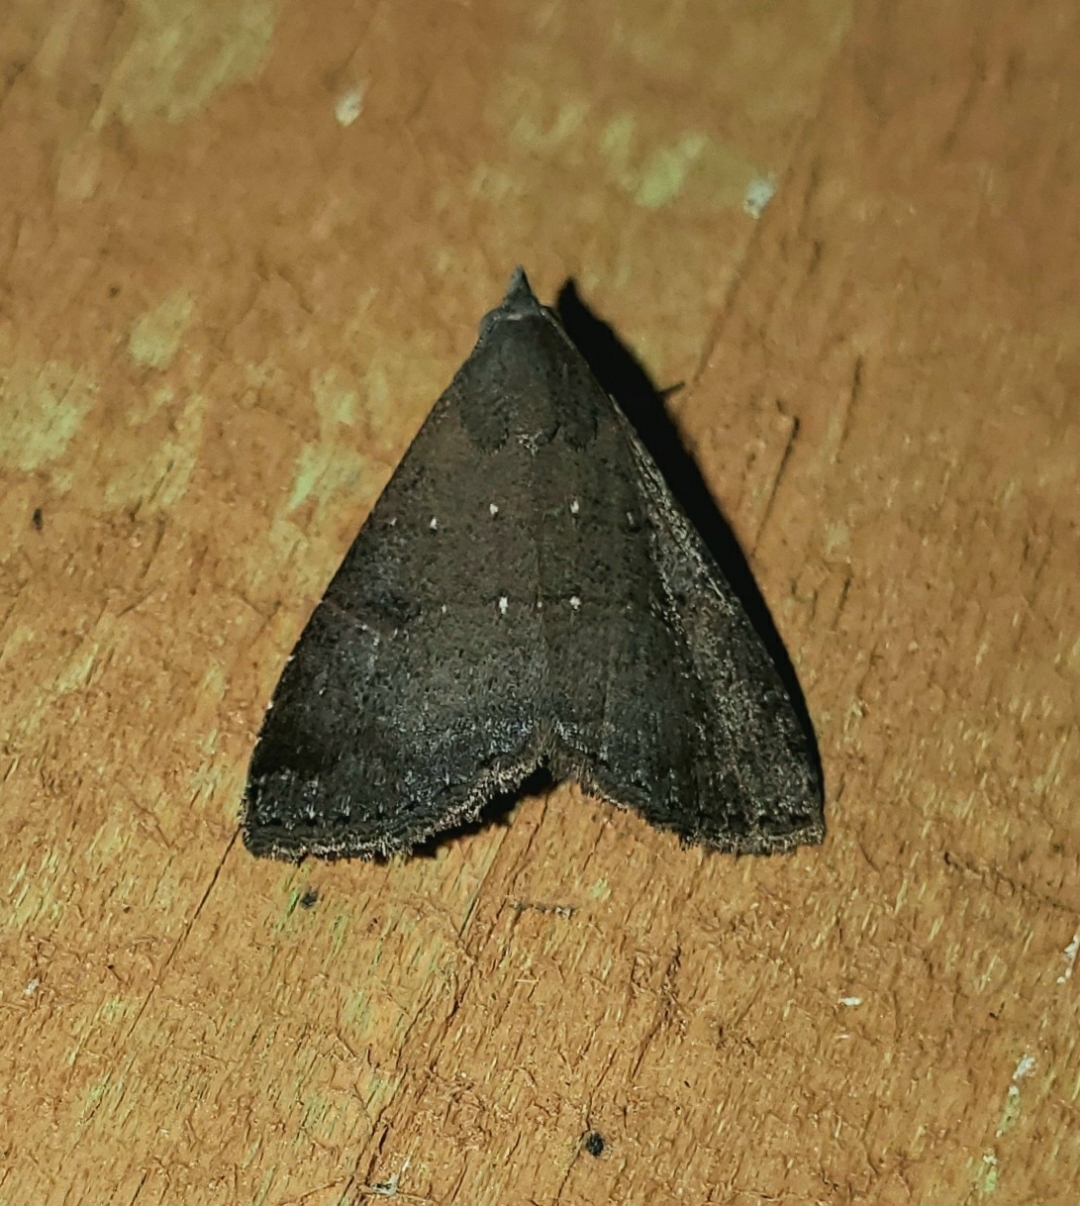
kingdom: Animalia
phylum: Arthropoda
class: Insecta
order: Lepidoptera
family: Noctuidae
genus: Hormoschista
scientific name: Hormoschista latipalpis
